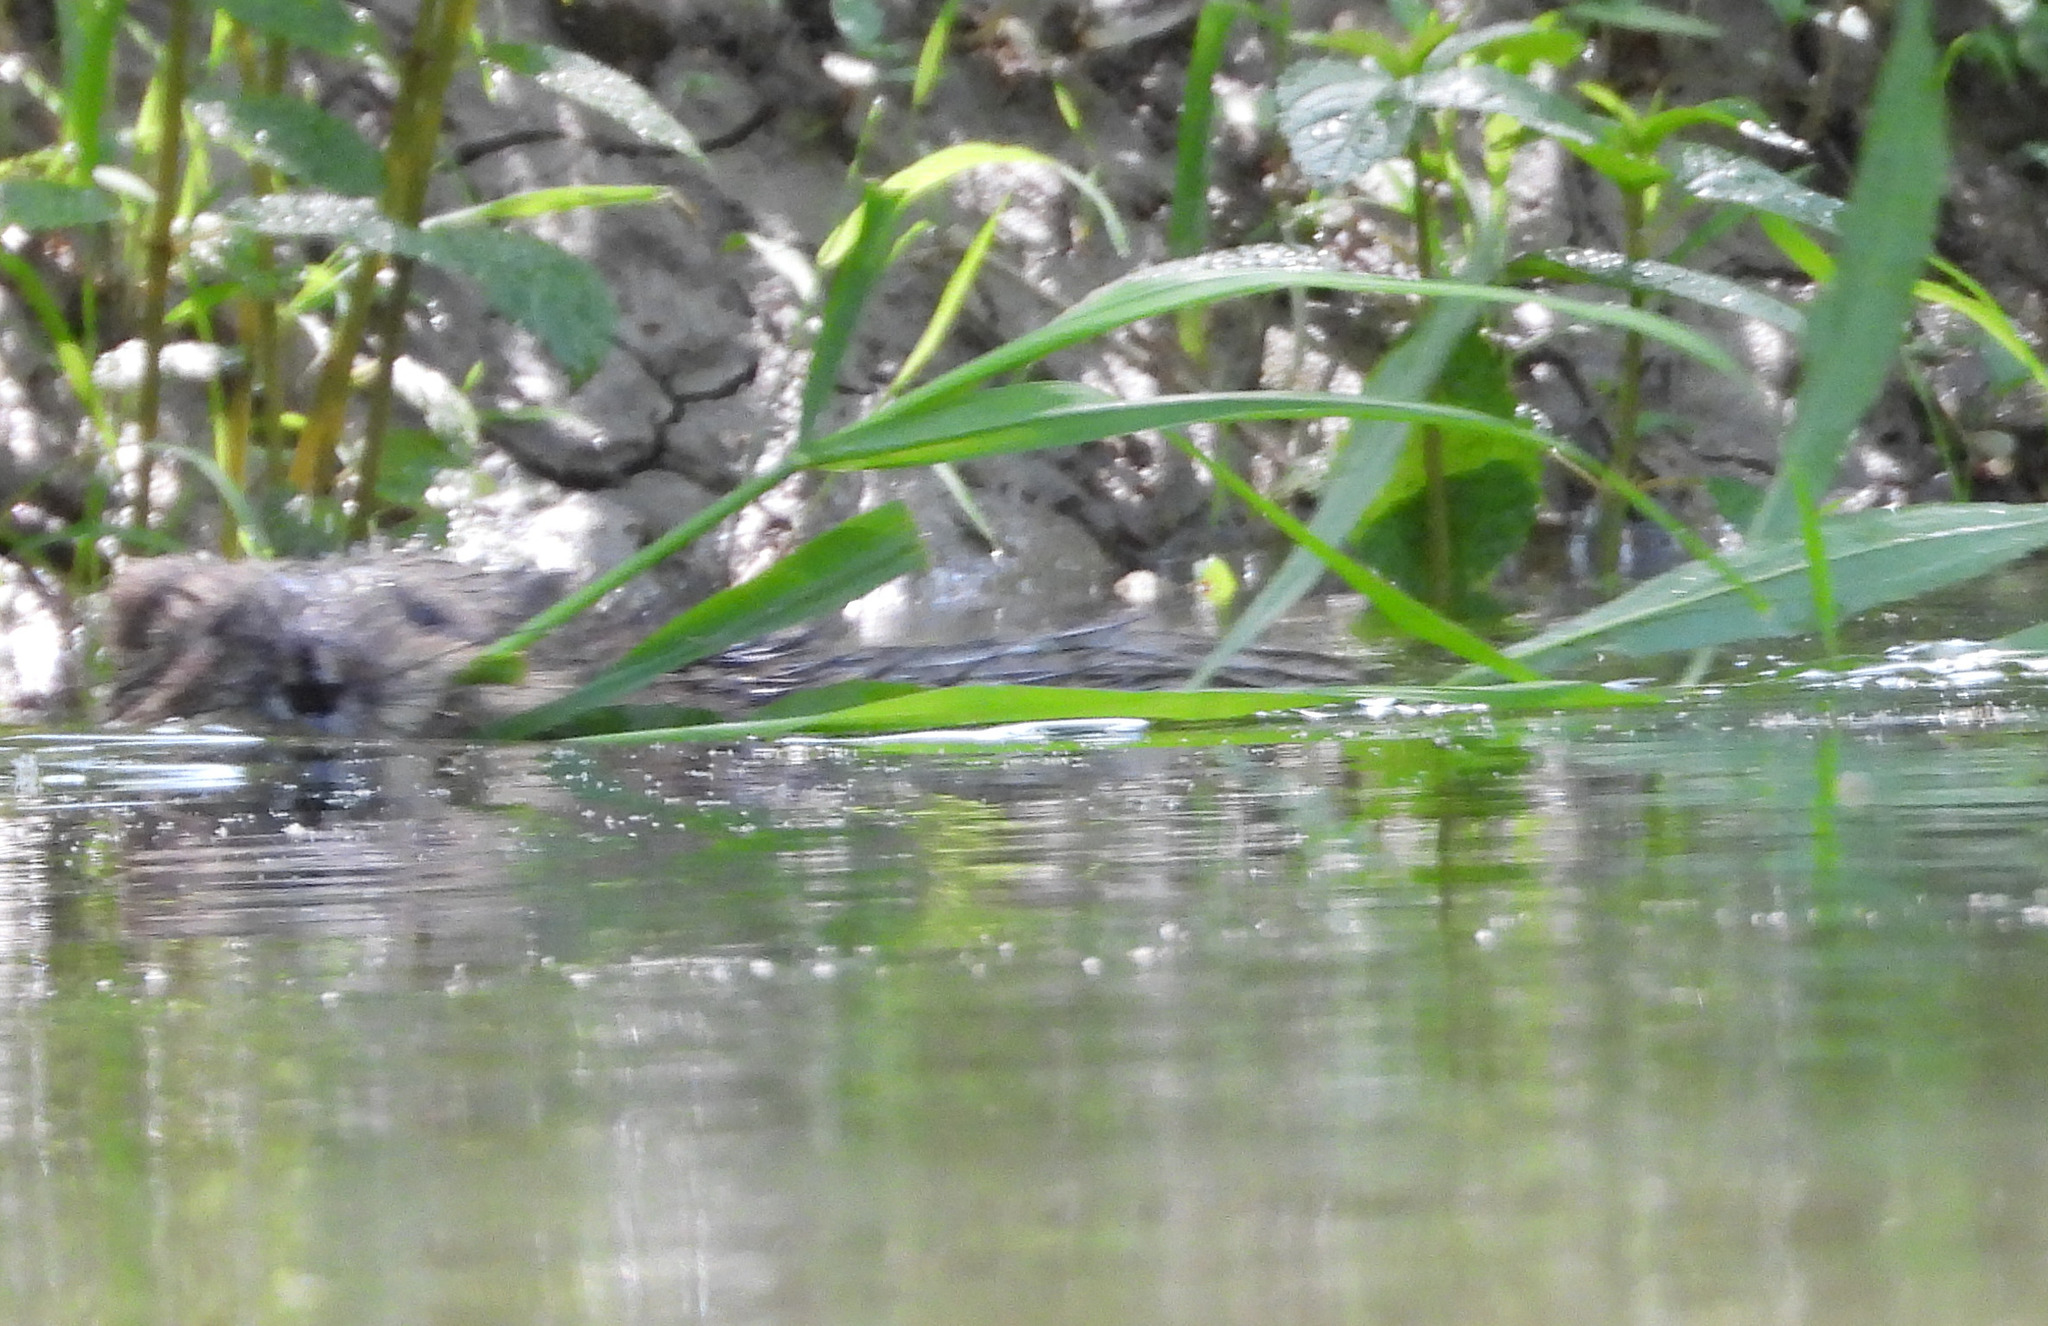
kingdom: Animalia
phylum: Chordata
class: Mammalia
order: Rodentia
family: Cricetidae
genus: Ondatra
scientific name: Ondatra zibethicus
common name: Muskrat
